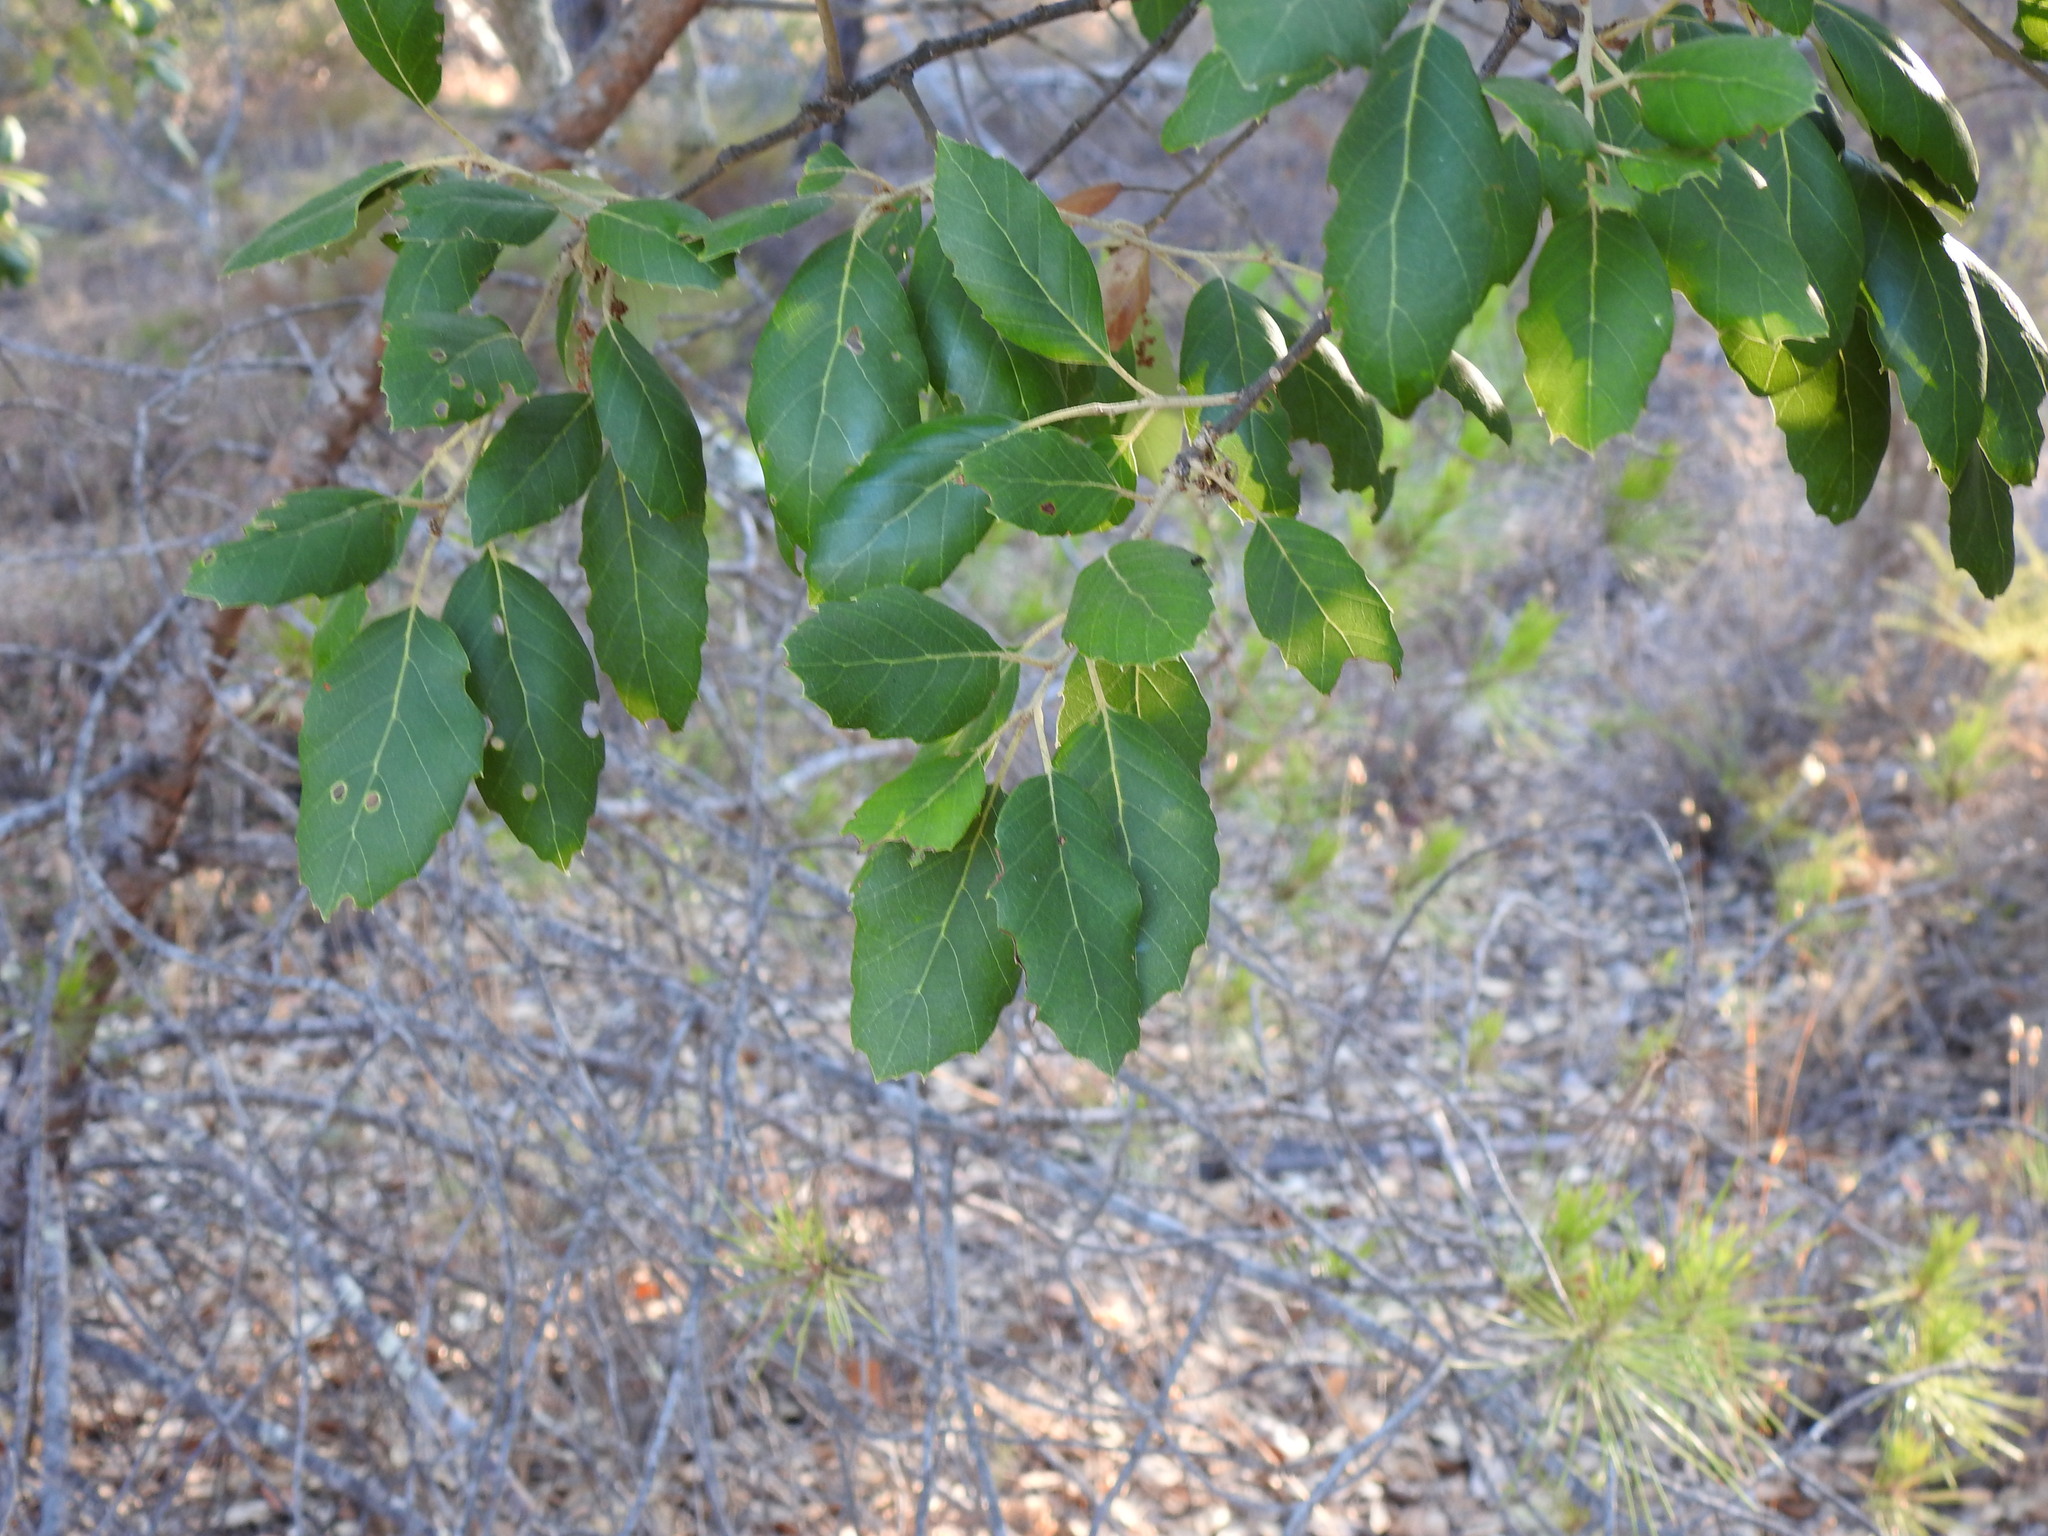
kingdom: Plantae
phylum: Tracheophyta
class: Magnoliopsida
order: Fagales
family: Fagaceae
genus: Quercus
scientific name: Quercus suber
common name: Cork oak
